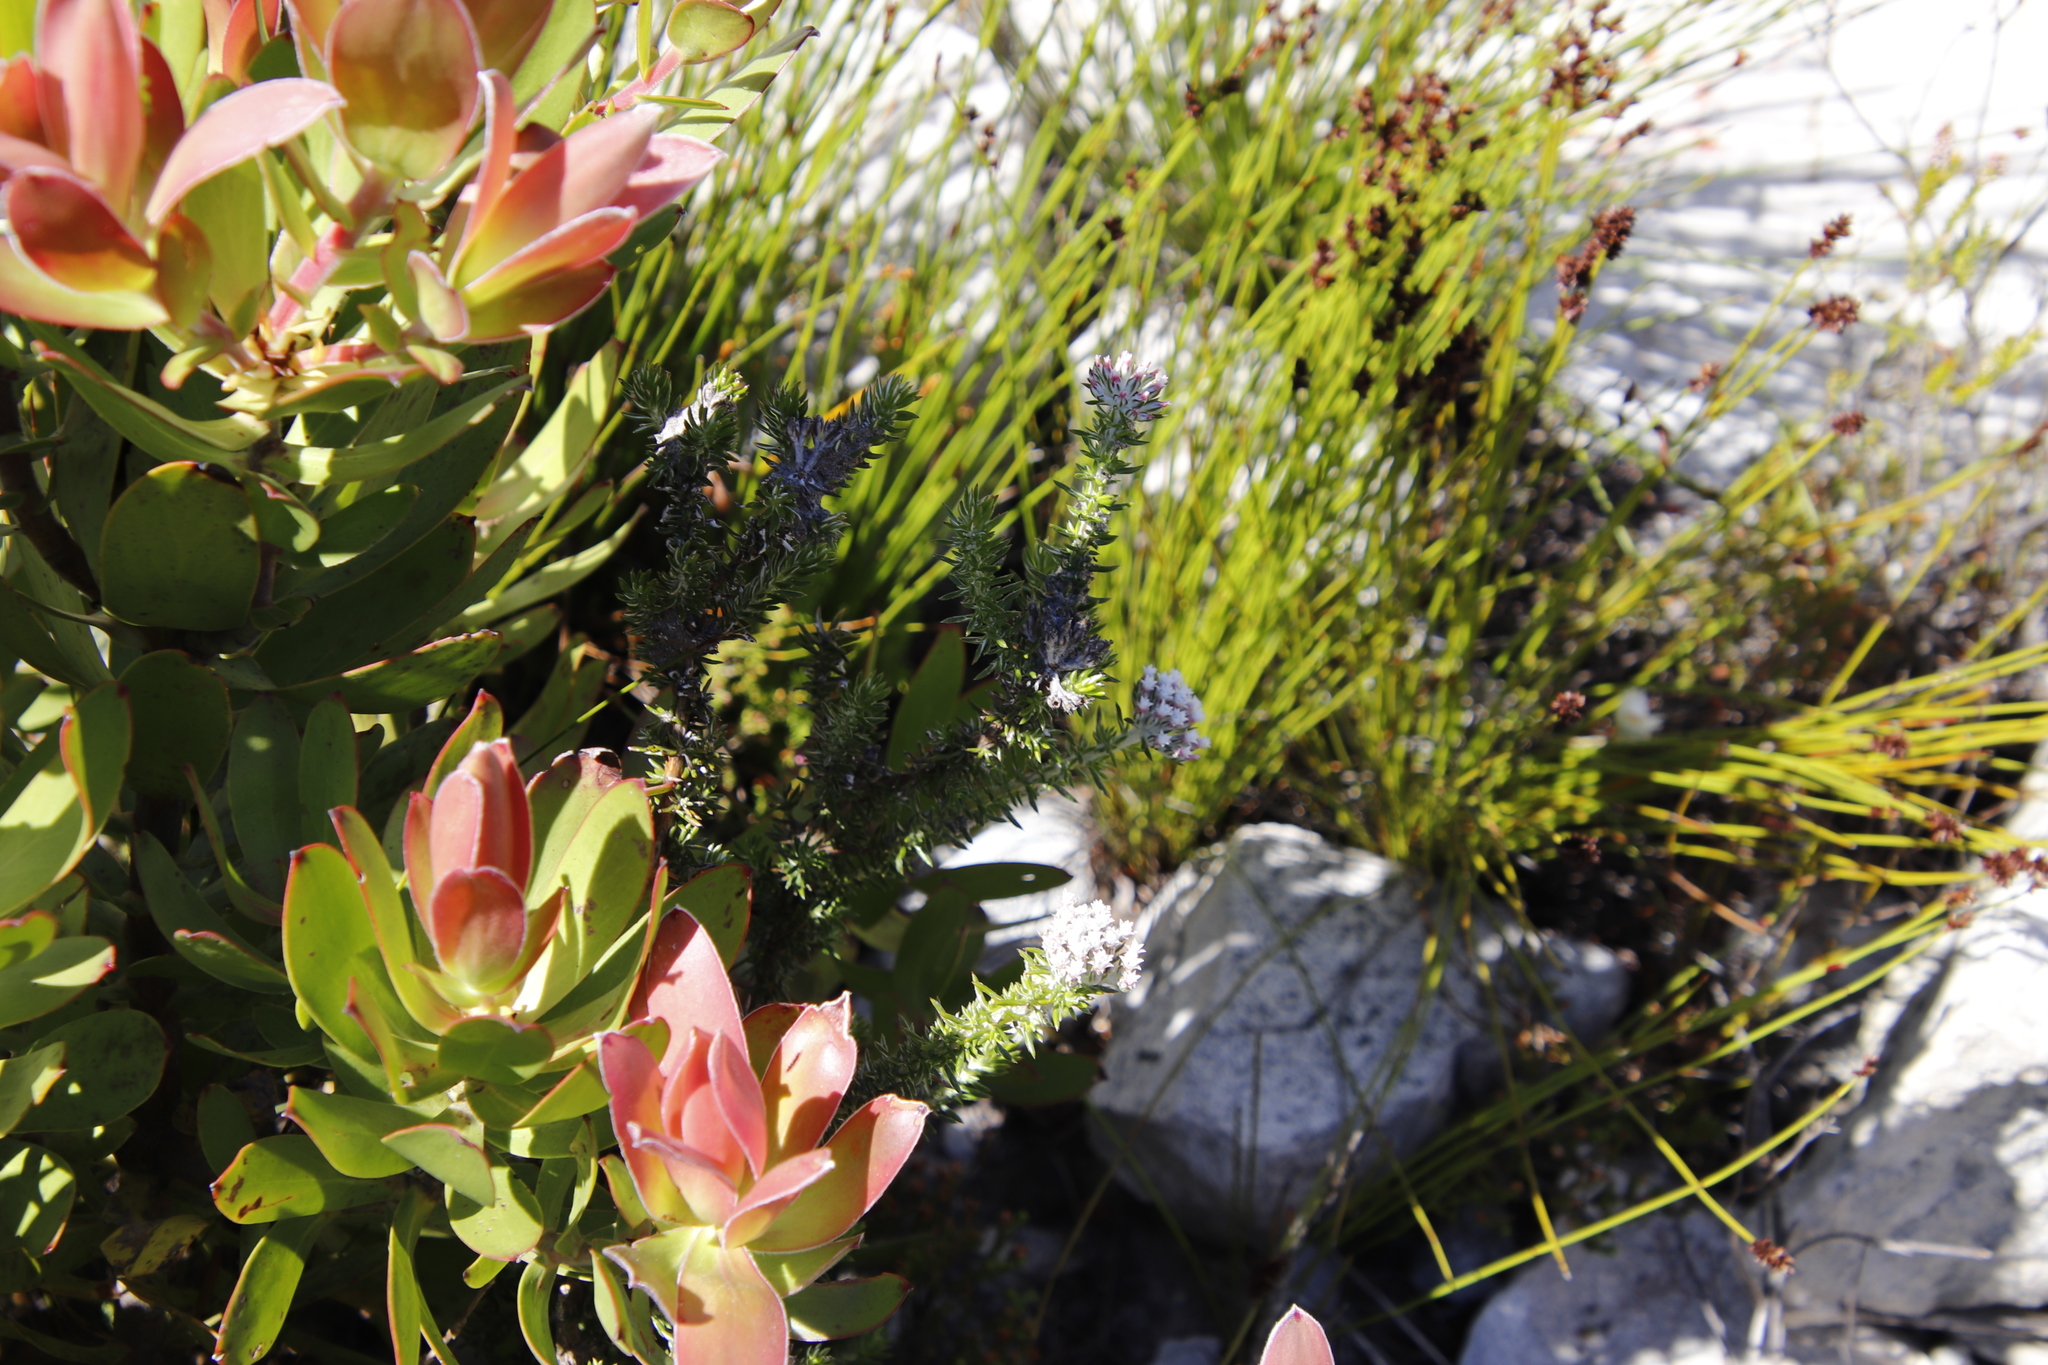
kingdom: Plantae
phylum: Tracheophyta
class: Magnoliopsida
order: Asterales
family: Asteraceae
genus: Metalasia
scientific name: Metalasia lichtensteinii
